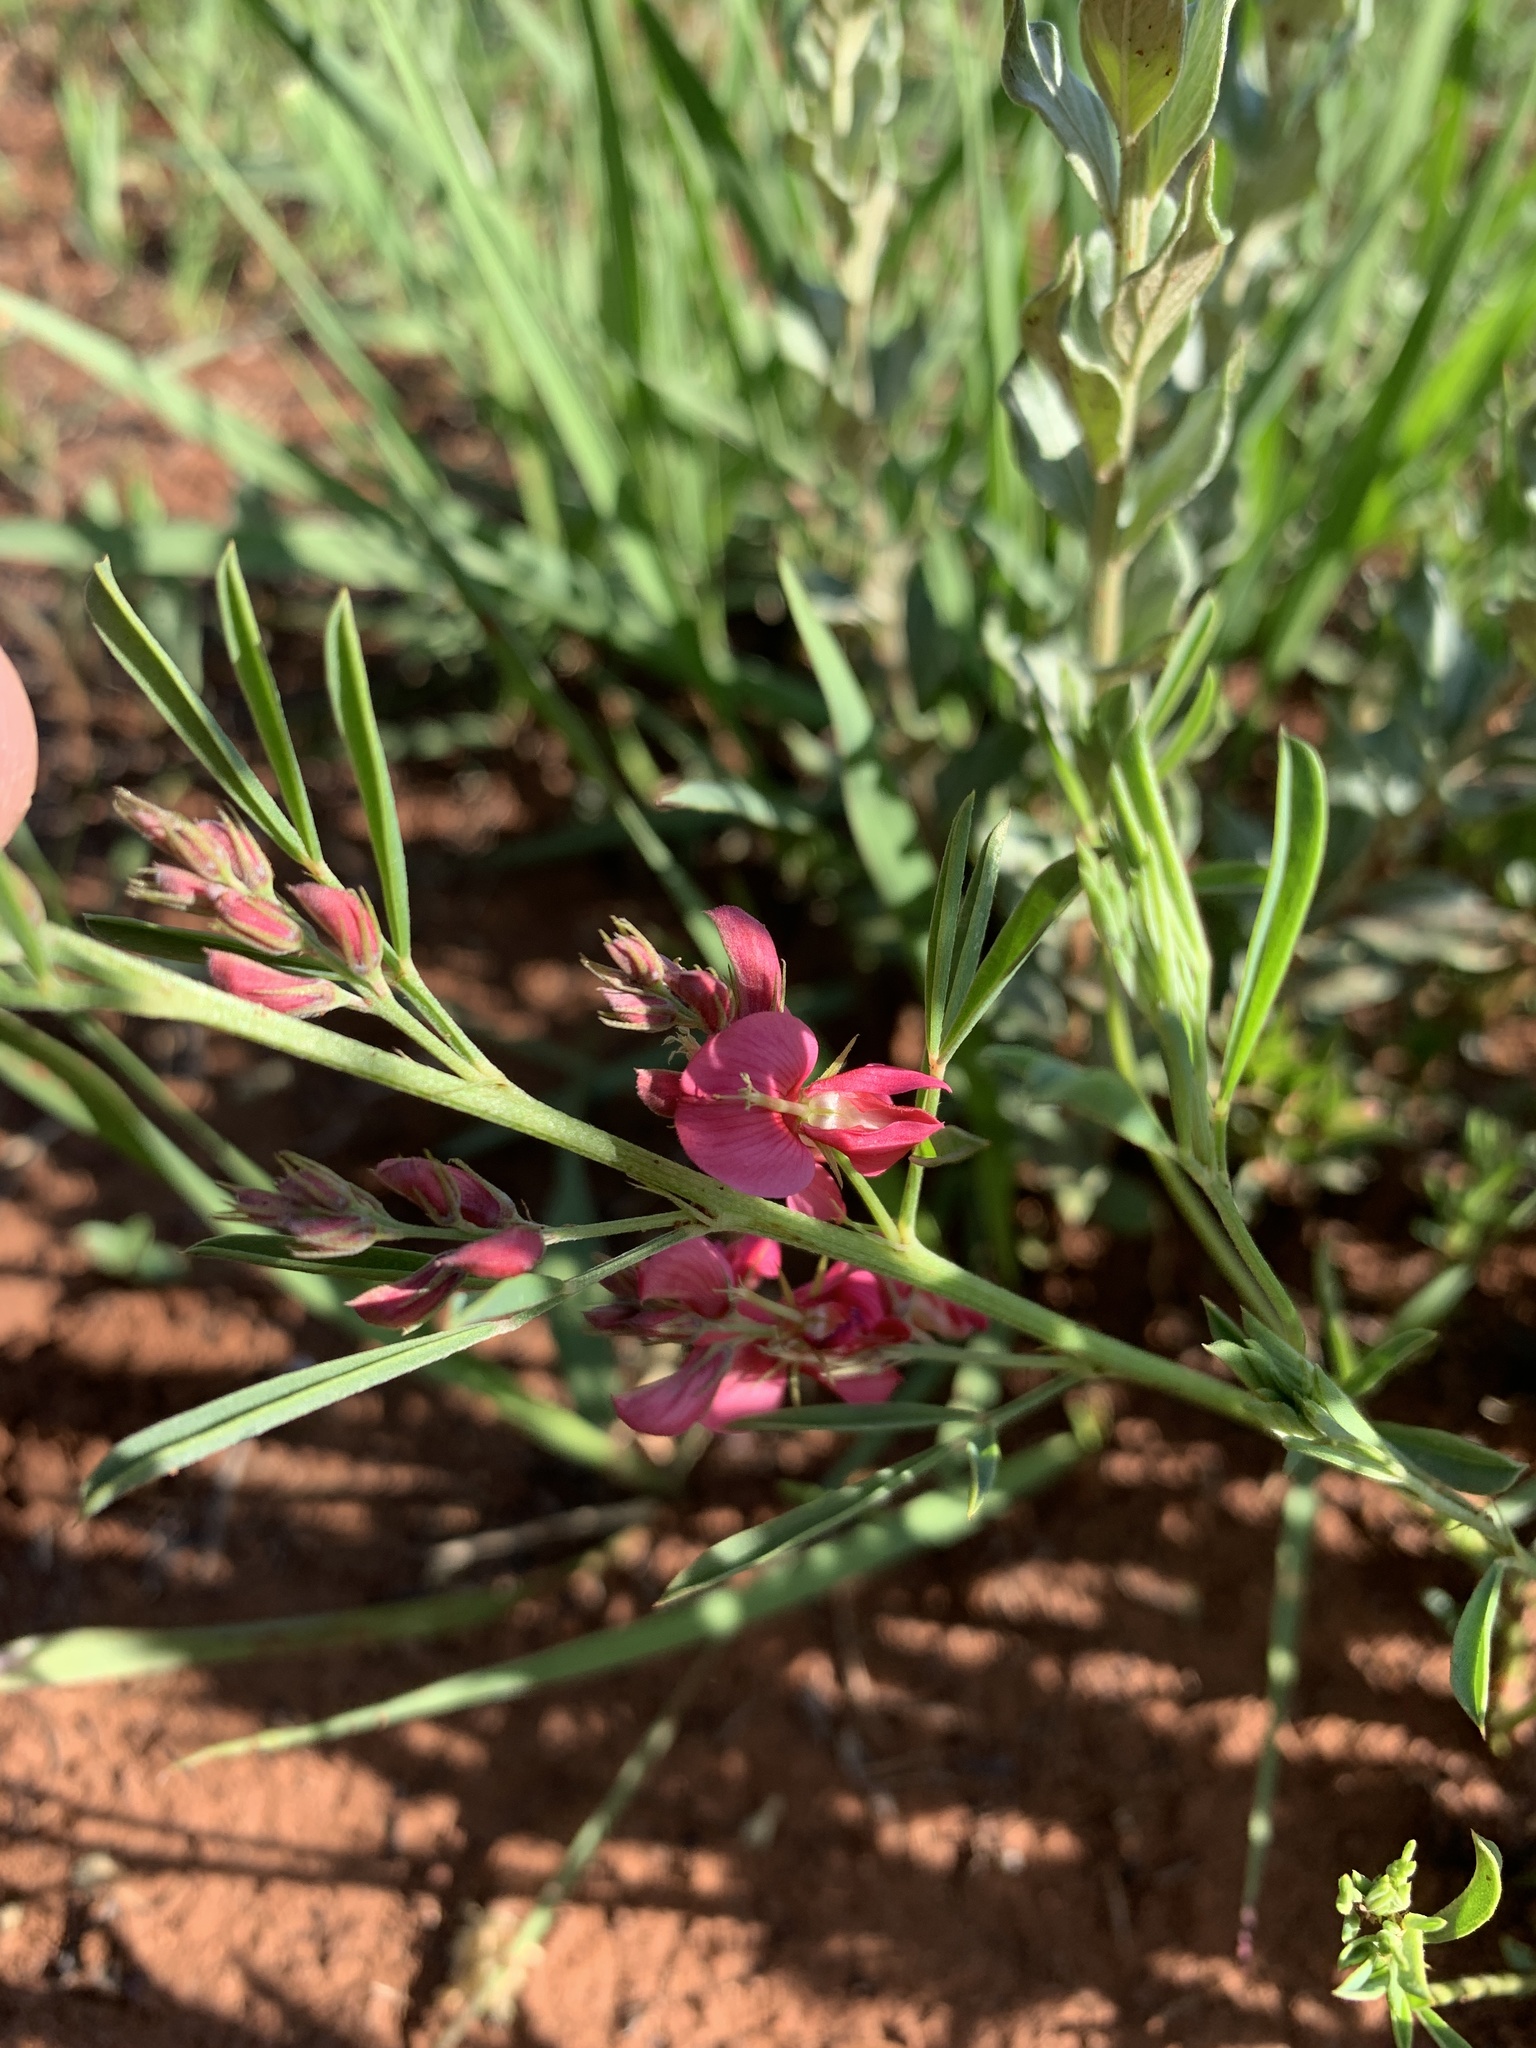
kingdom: Plantae
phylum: Tracheophyta
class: Magnoliopsida
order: Fabales
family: Fabaceae
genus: Indigofera
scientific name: Indigofera hilaris
